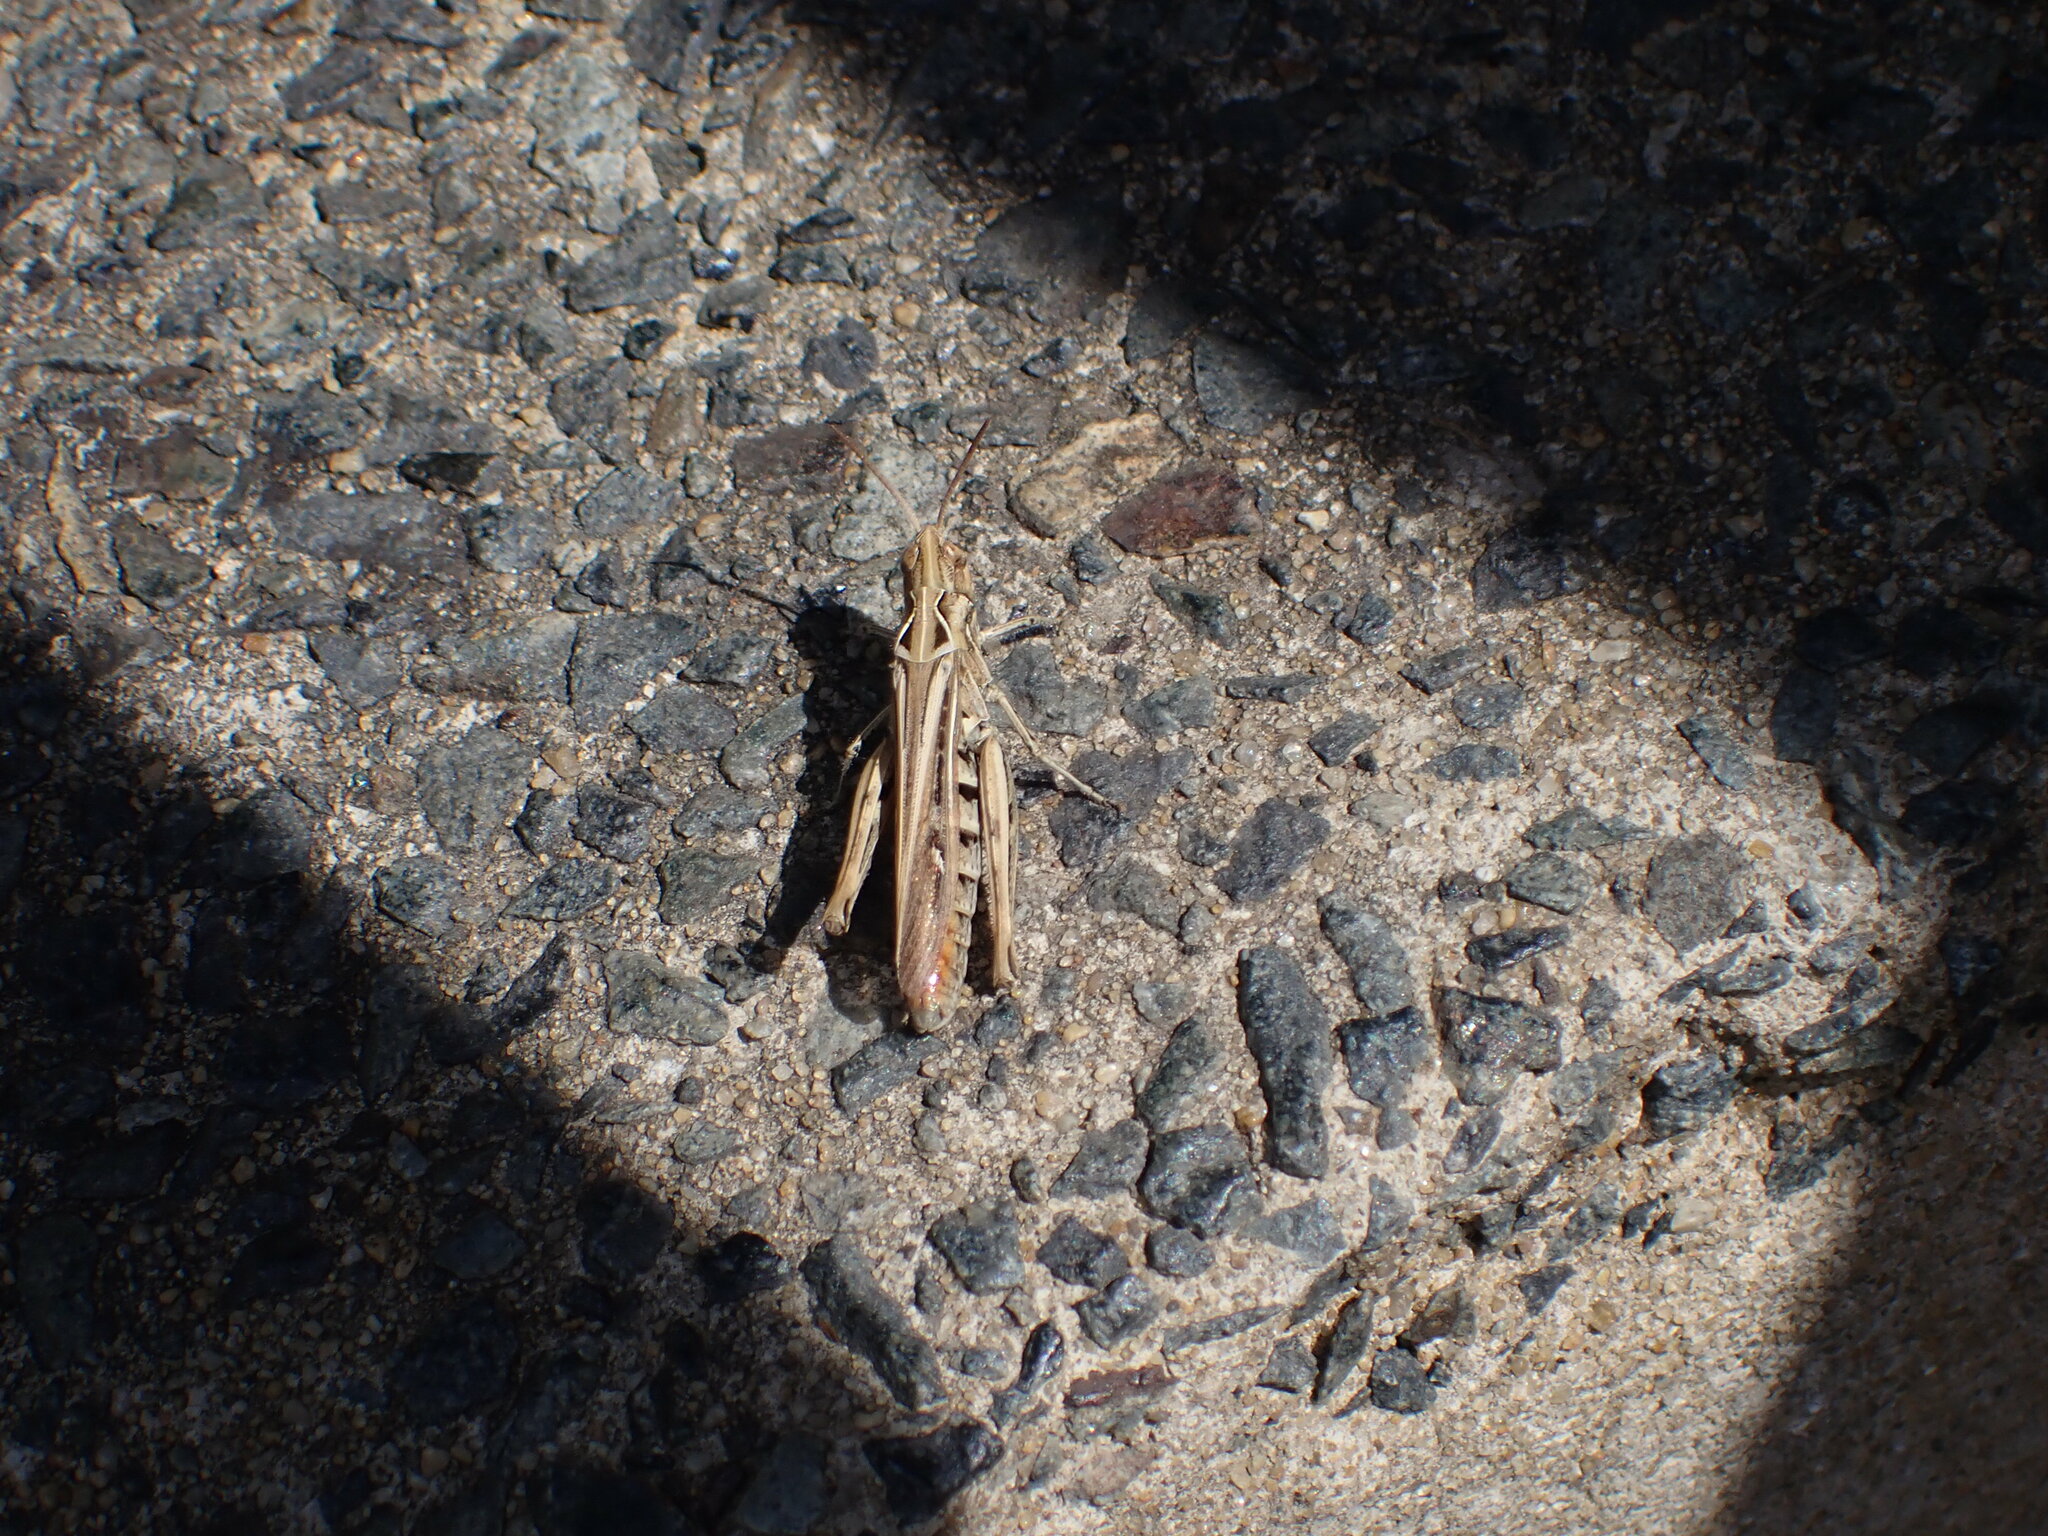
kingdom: Animalia
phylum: Arthropoda
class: Insecta
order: Orthoptera
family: Acrididae
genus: Chorthippus
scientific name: Chorthippus brunneus
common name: Field grasshopper
